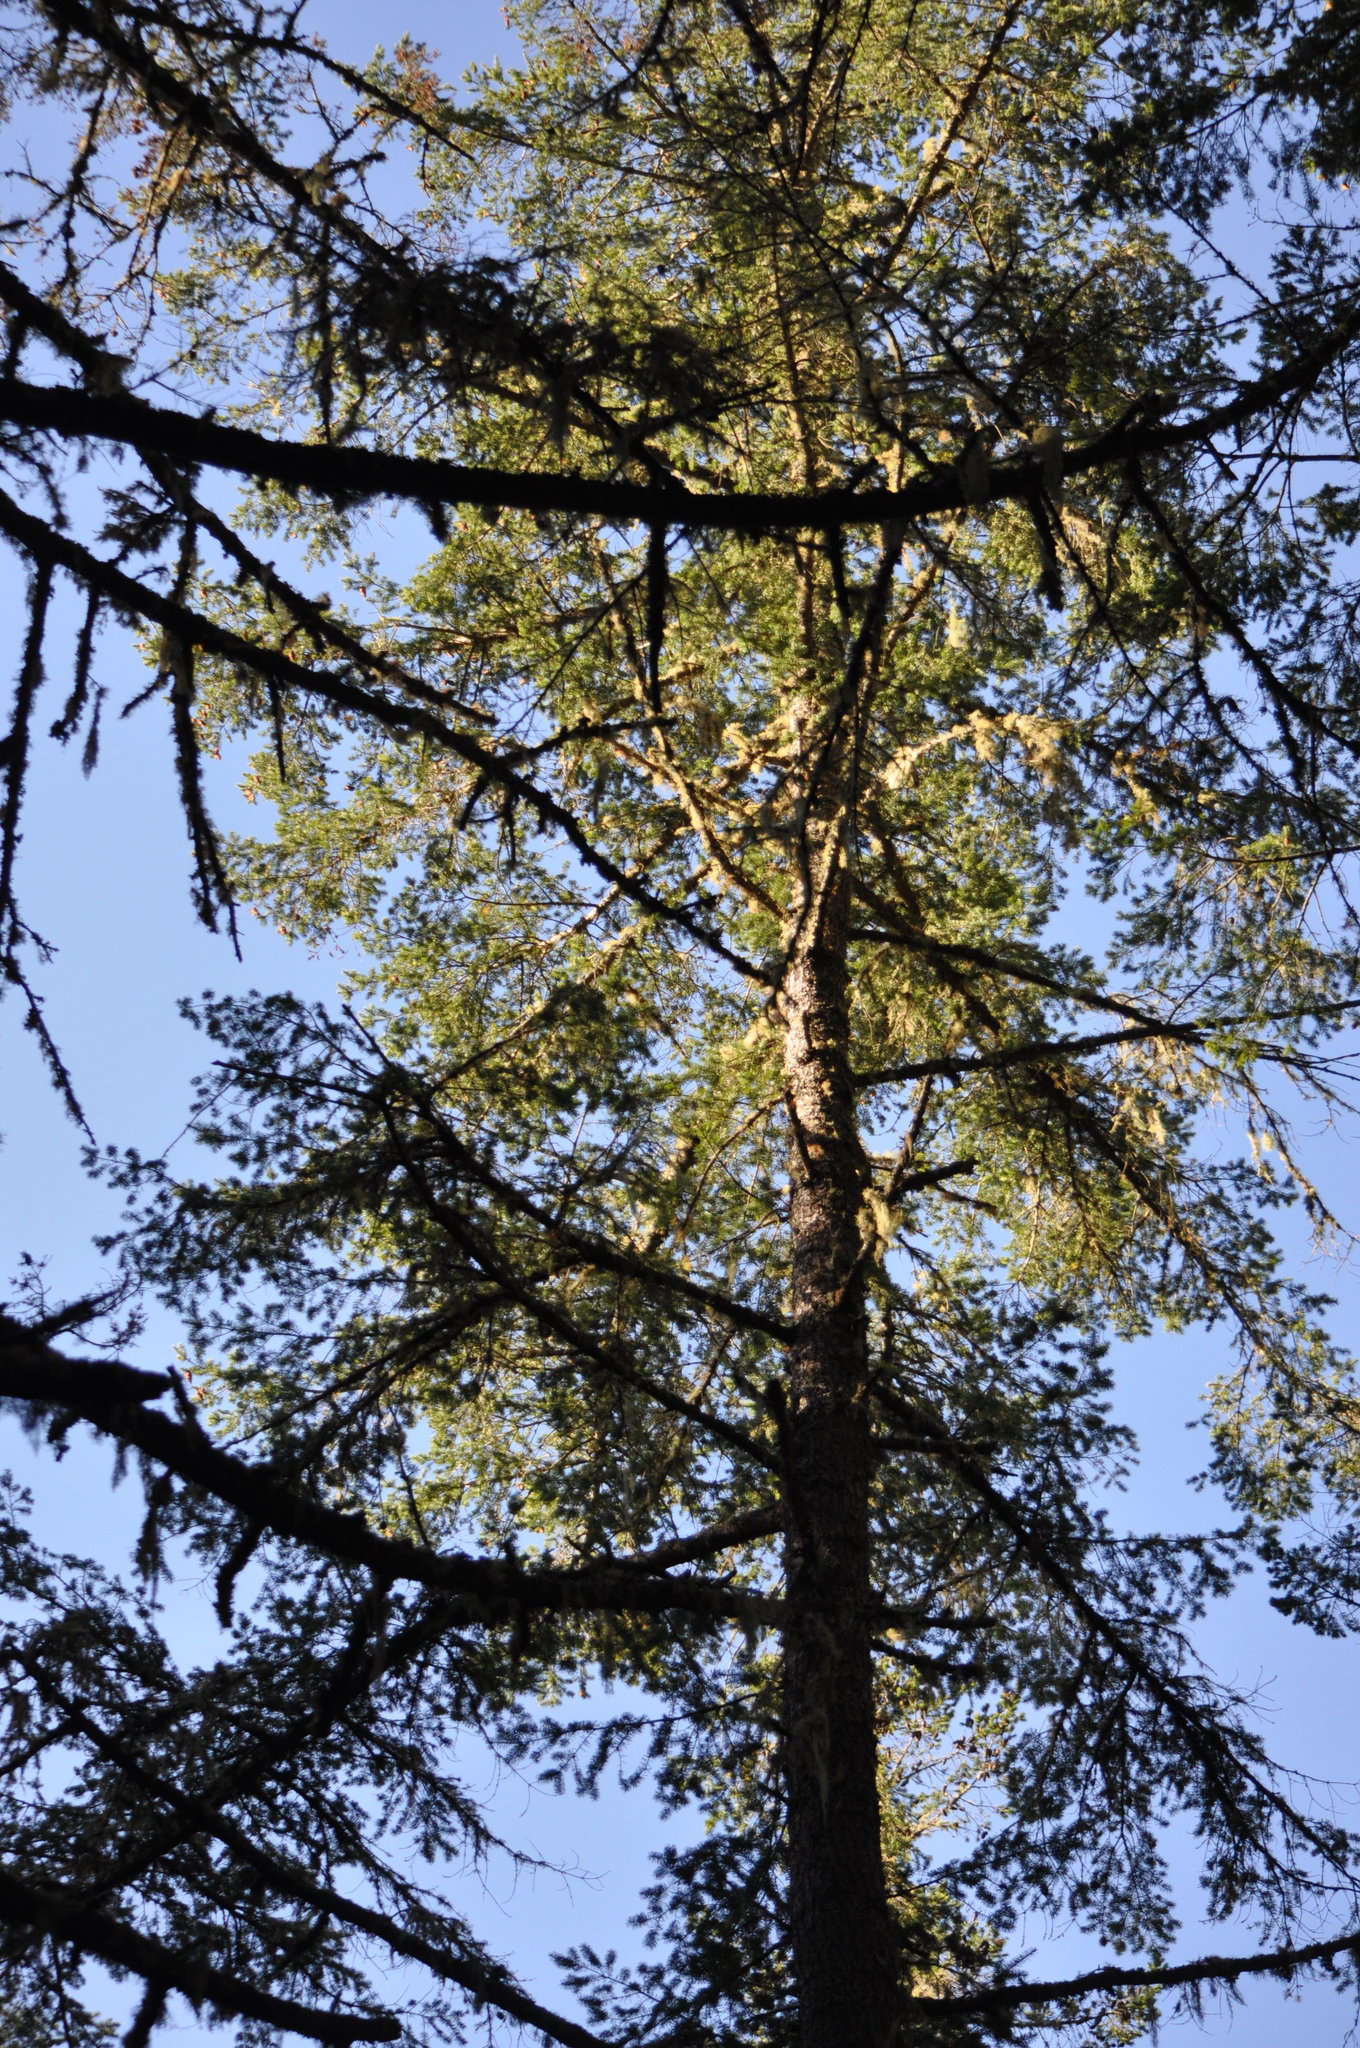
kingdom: Plantae
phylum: Tracheophyta
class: Pinopsida
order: Pinales
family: Pinaceae
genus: Pseudotsuga
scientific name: Pseudotsuga menziesii
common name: Douglas fir
